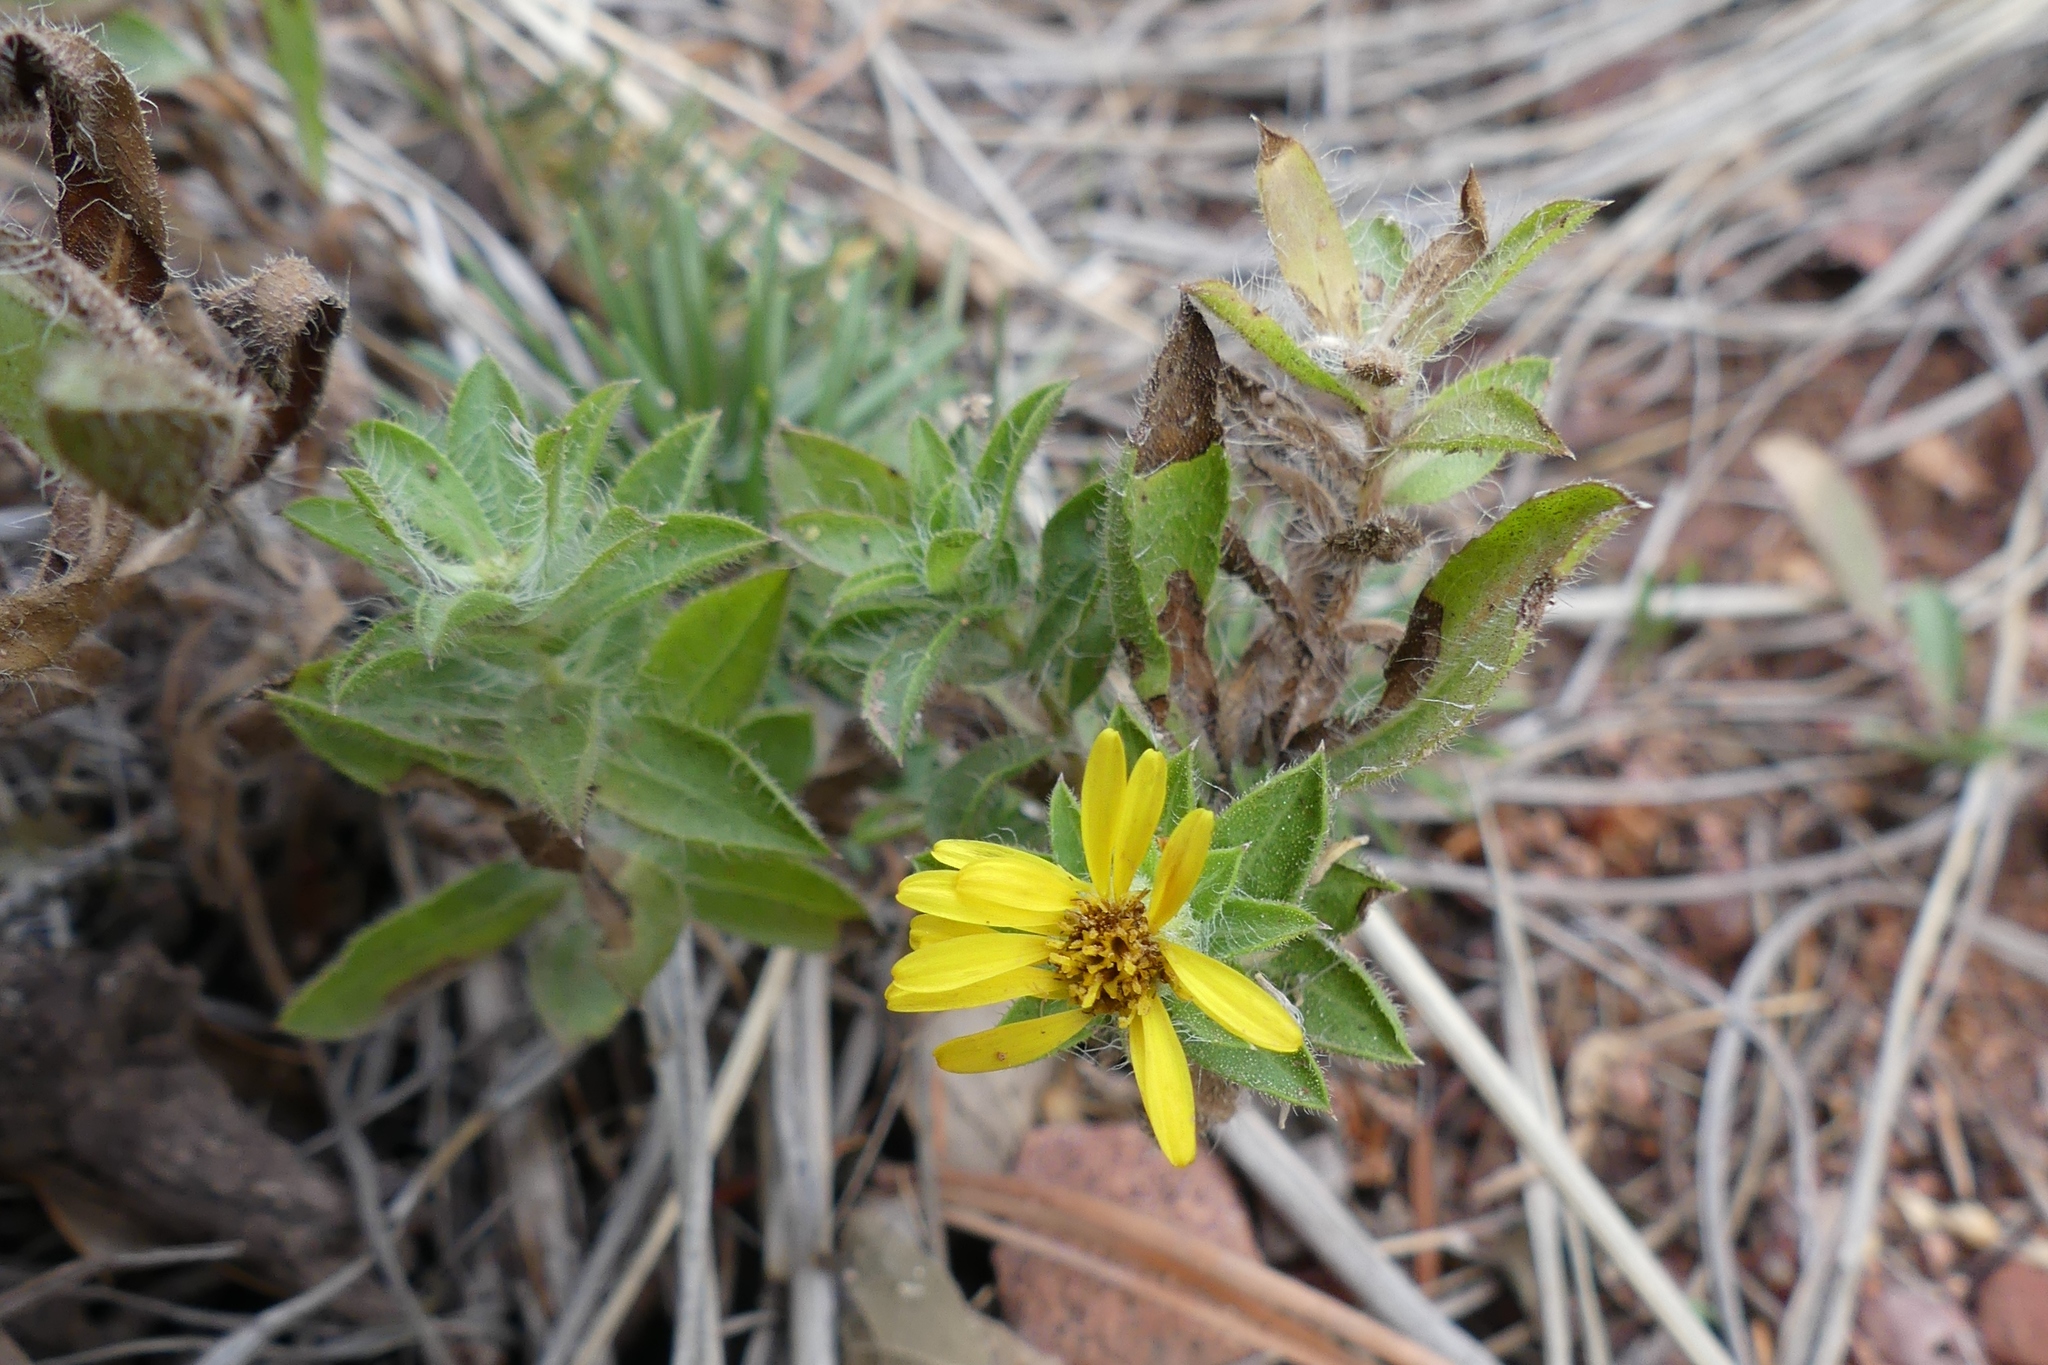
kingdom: Plantae
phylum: Tracheophyta
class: Magnoliopsida
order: Asterales
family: Asteraceae
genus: Heterotheca
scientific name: Heterotheca hirsuta
